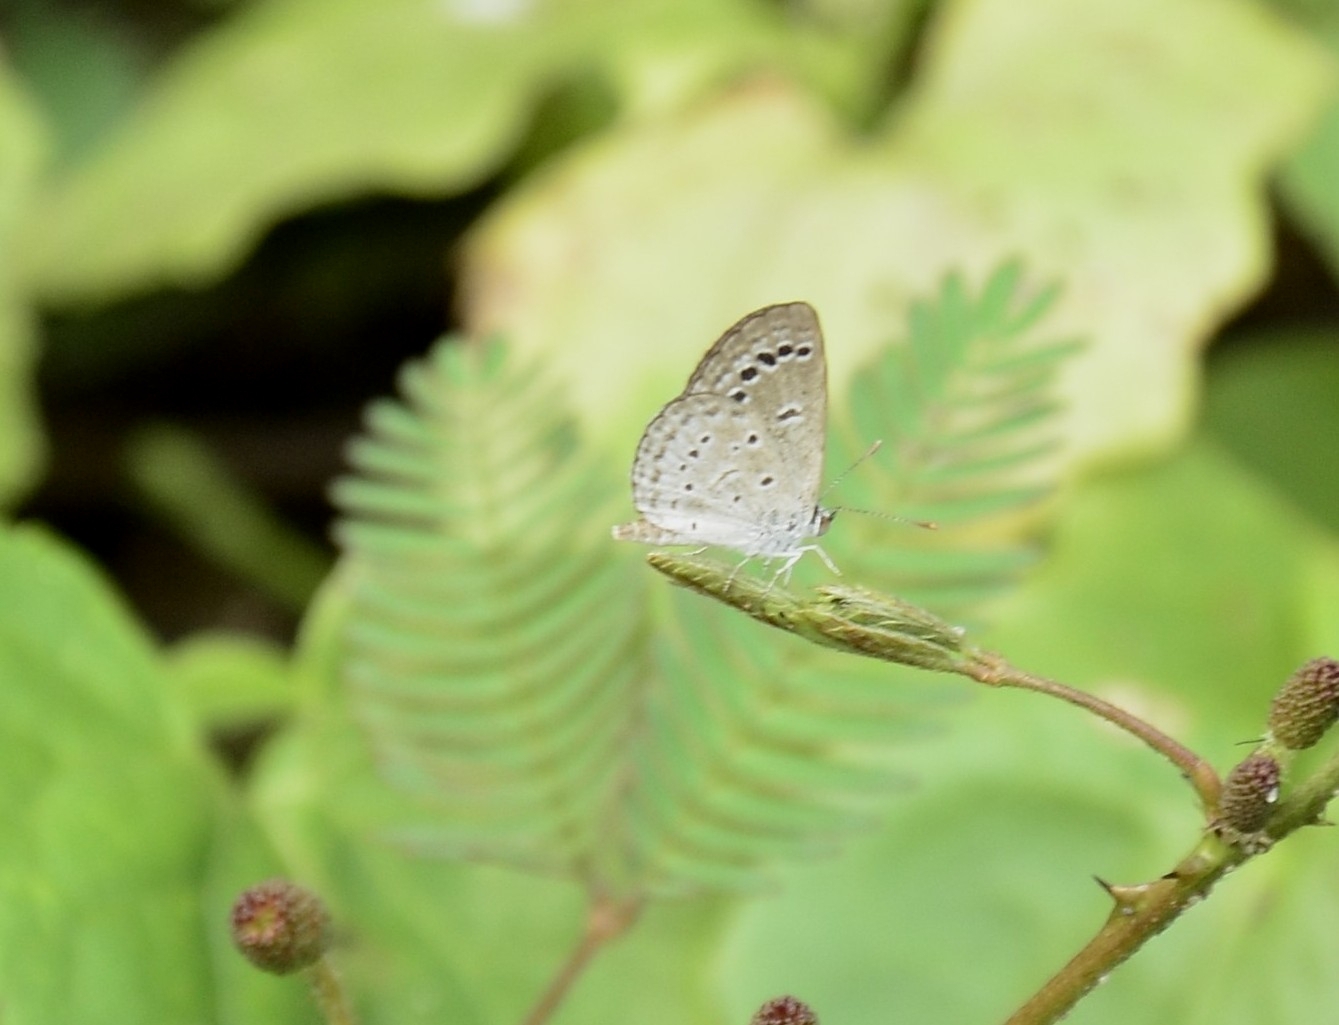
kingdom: Animalia
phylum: Arthropoda
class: Insecta
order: Lepidoptera
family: Lycaenidae
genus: Zizina
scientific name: Zizina otis
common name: Lesser grass blue
